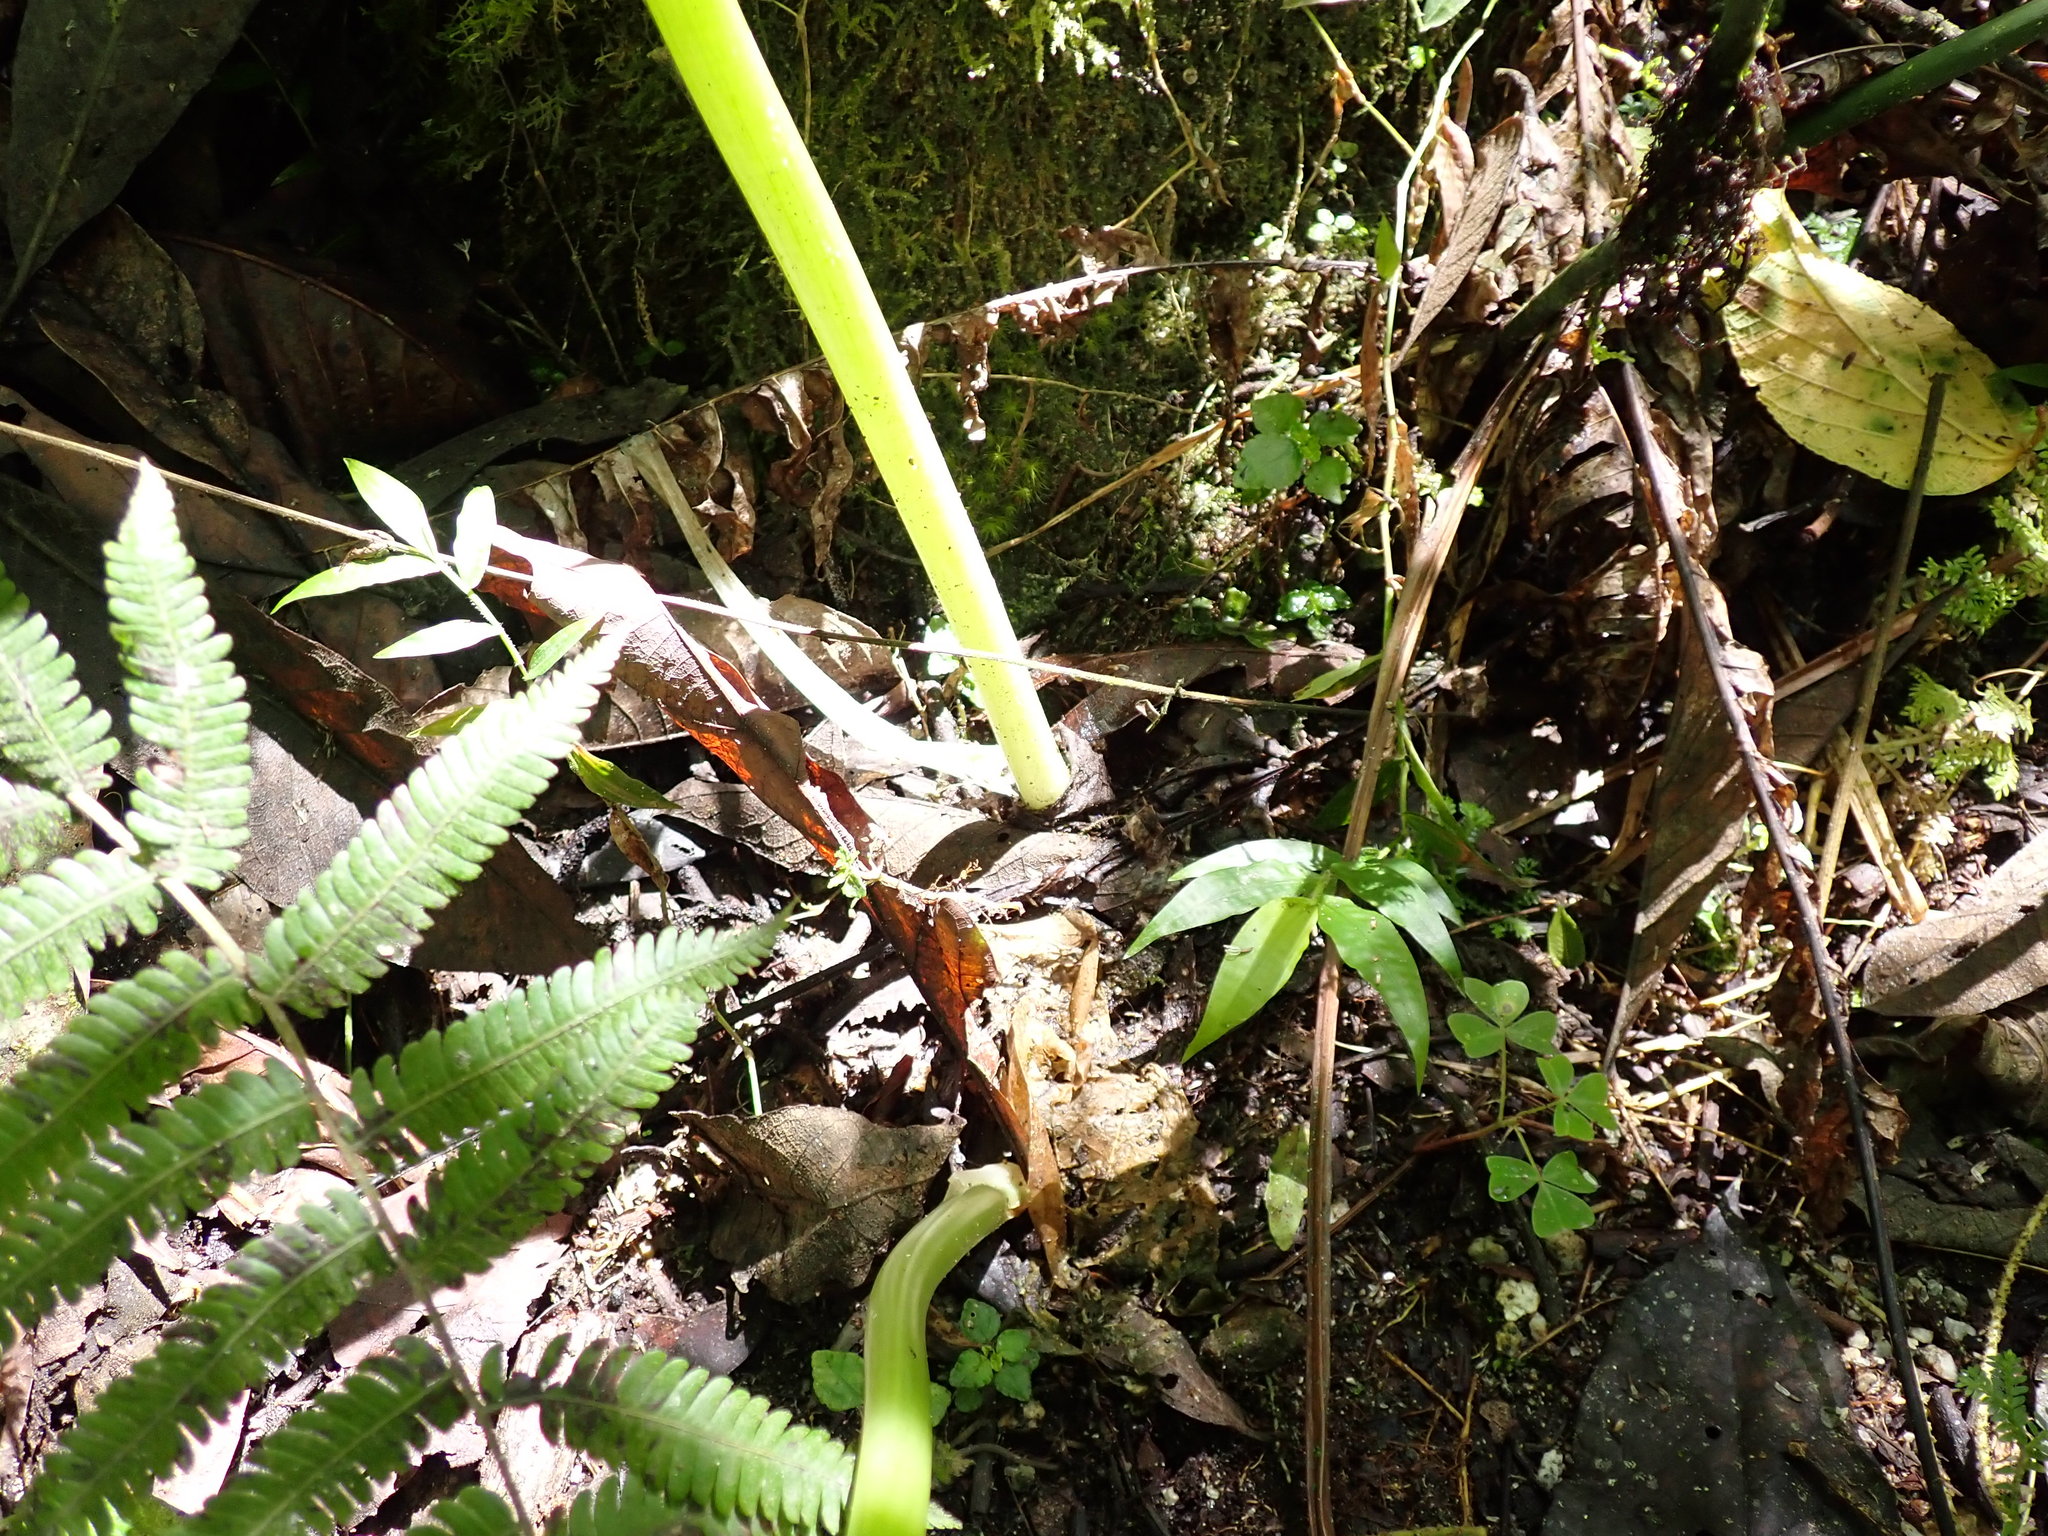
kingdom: Plantae
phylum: Tracheophyta
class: Liliopsida
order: Alismatales
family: Araceae
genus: Spathantheum
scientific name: Spathantheum orbignyanum
